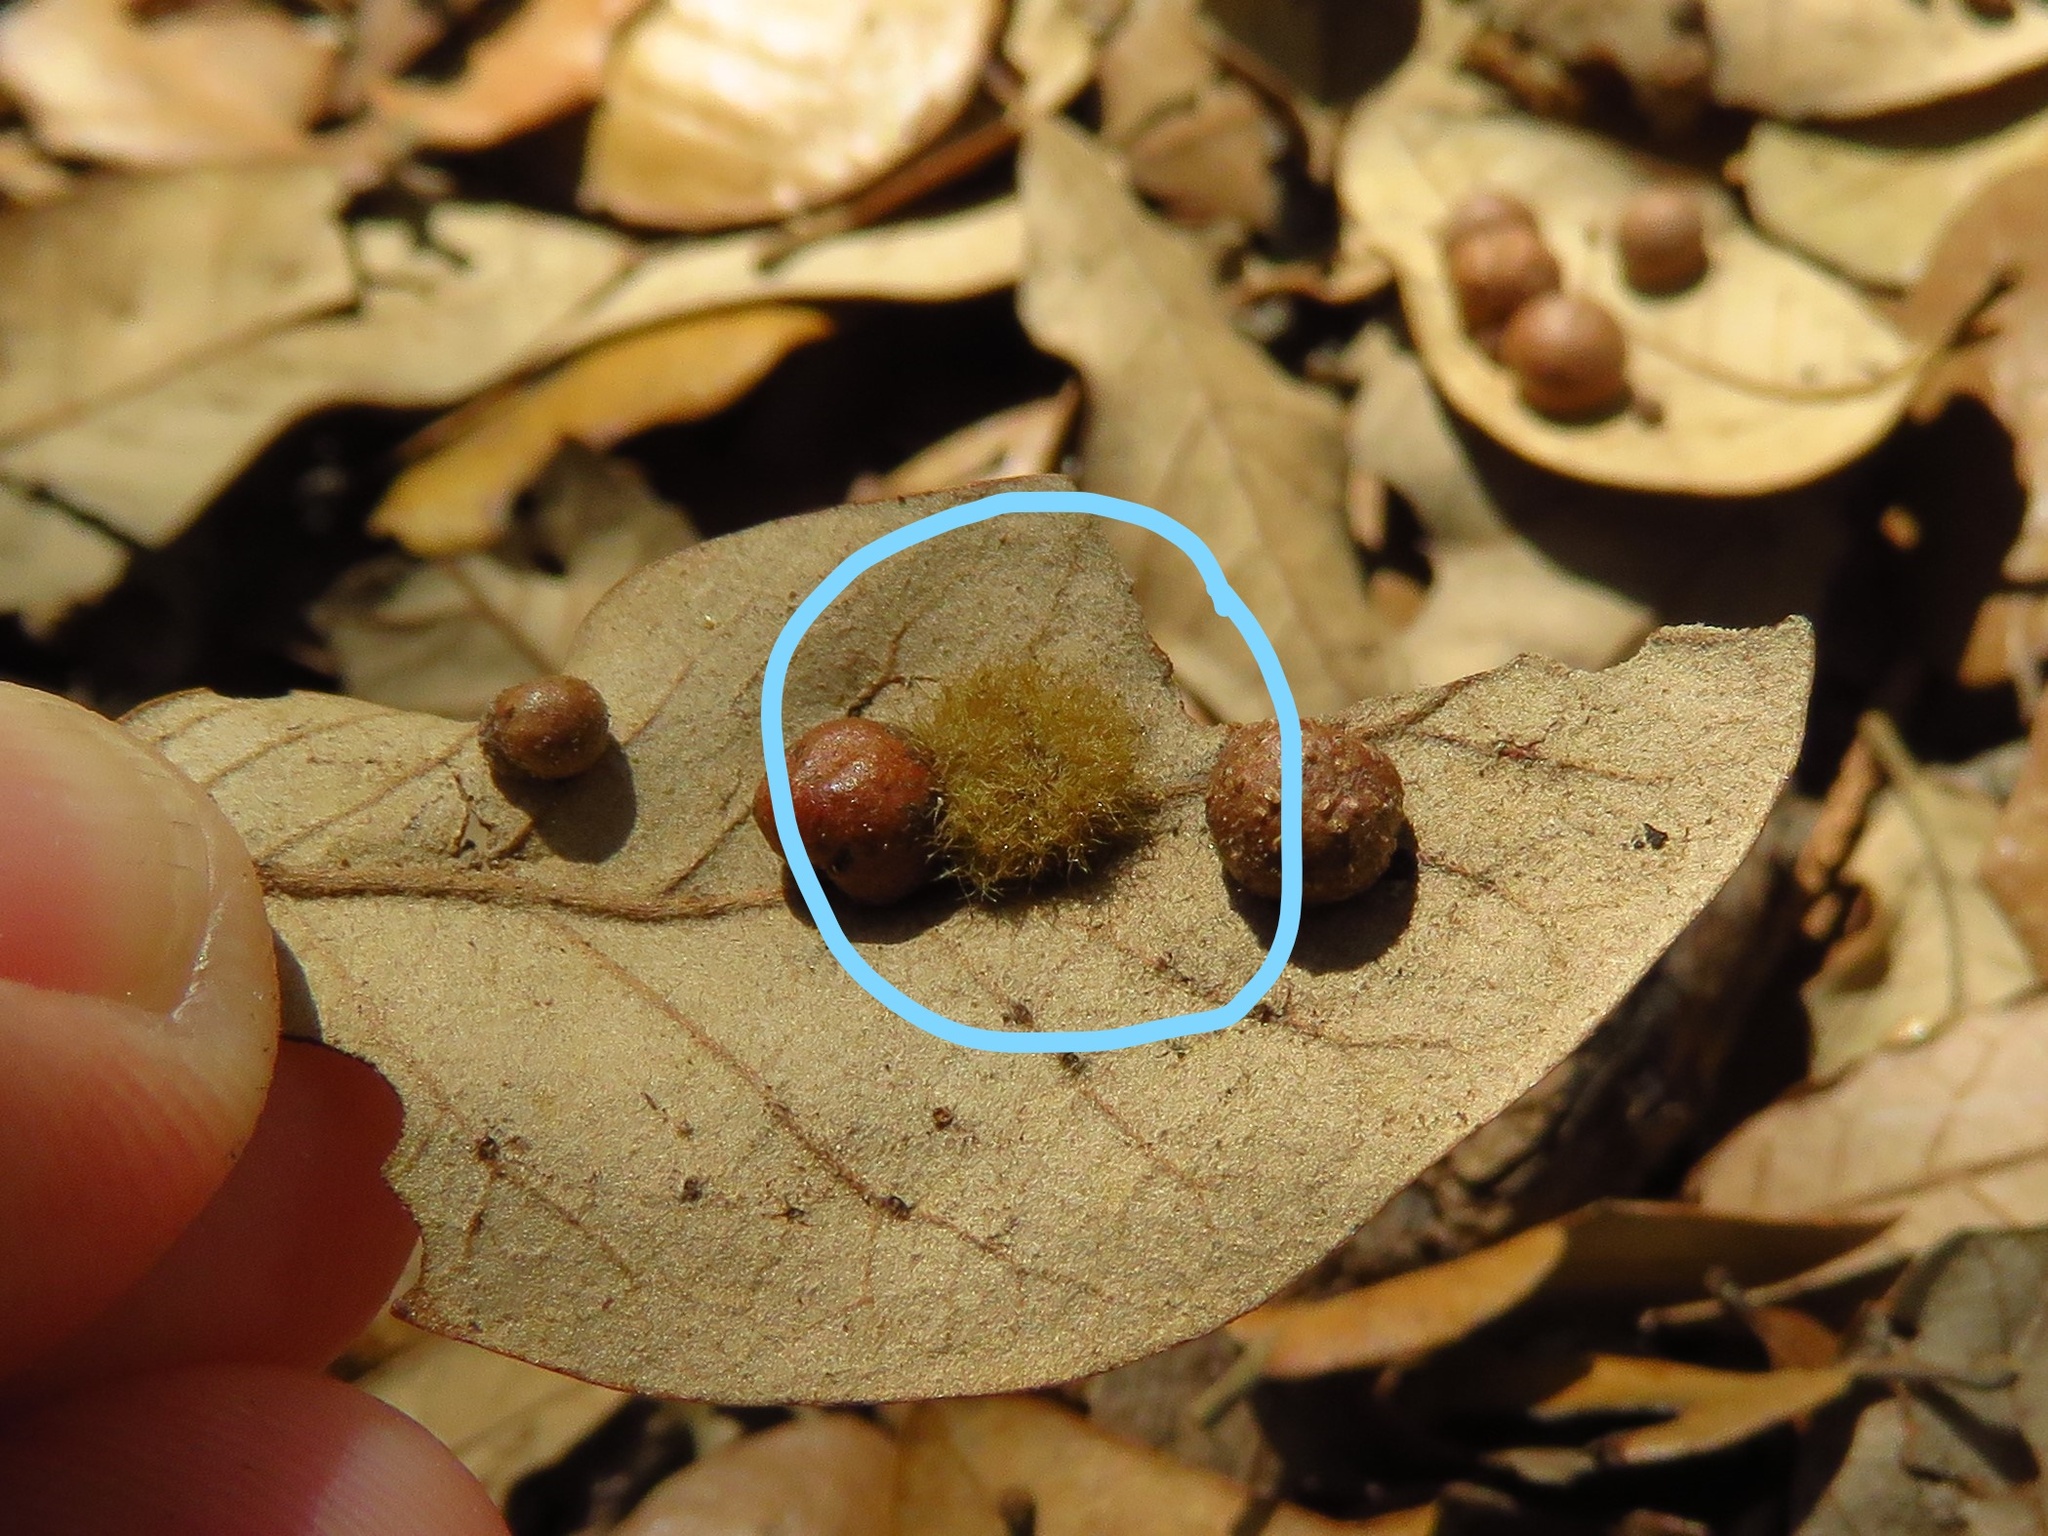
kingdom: Animalia
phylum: Arthropoda
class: Insecta
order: Hymenoptera
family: Cynipidae
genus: Andricus
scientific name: Andricus Druon quercuslanigerum
